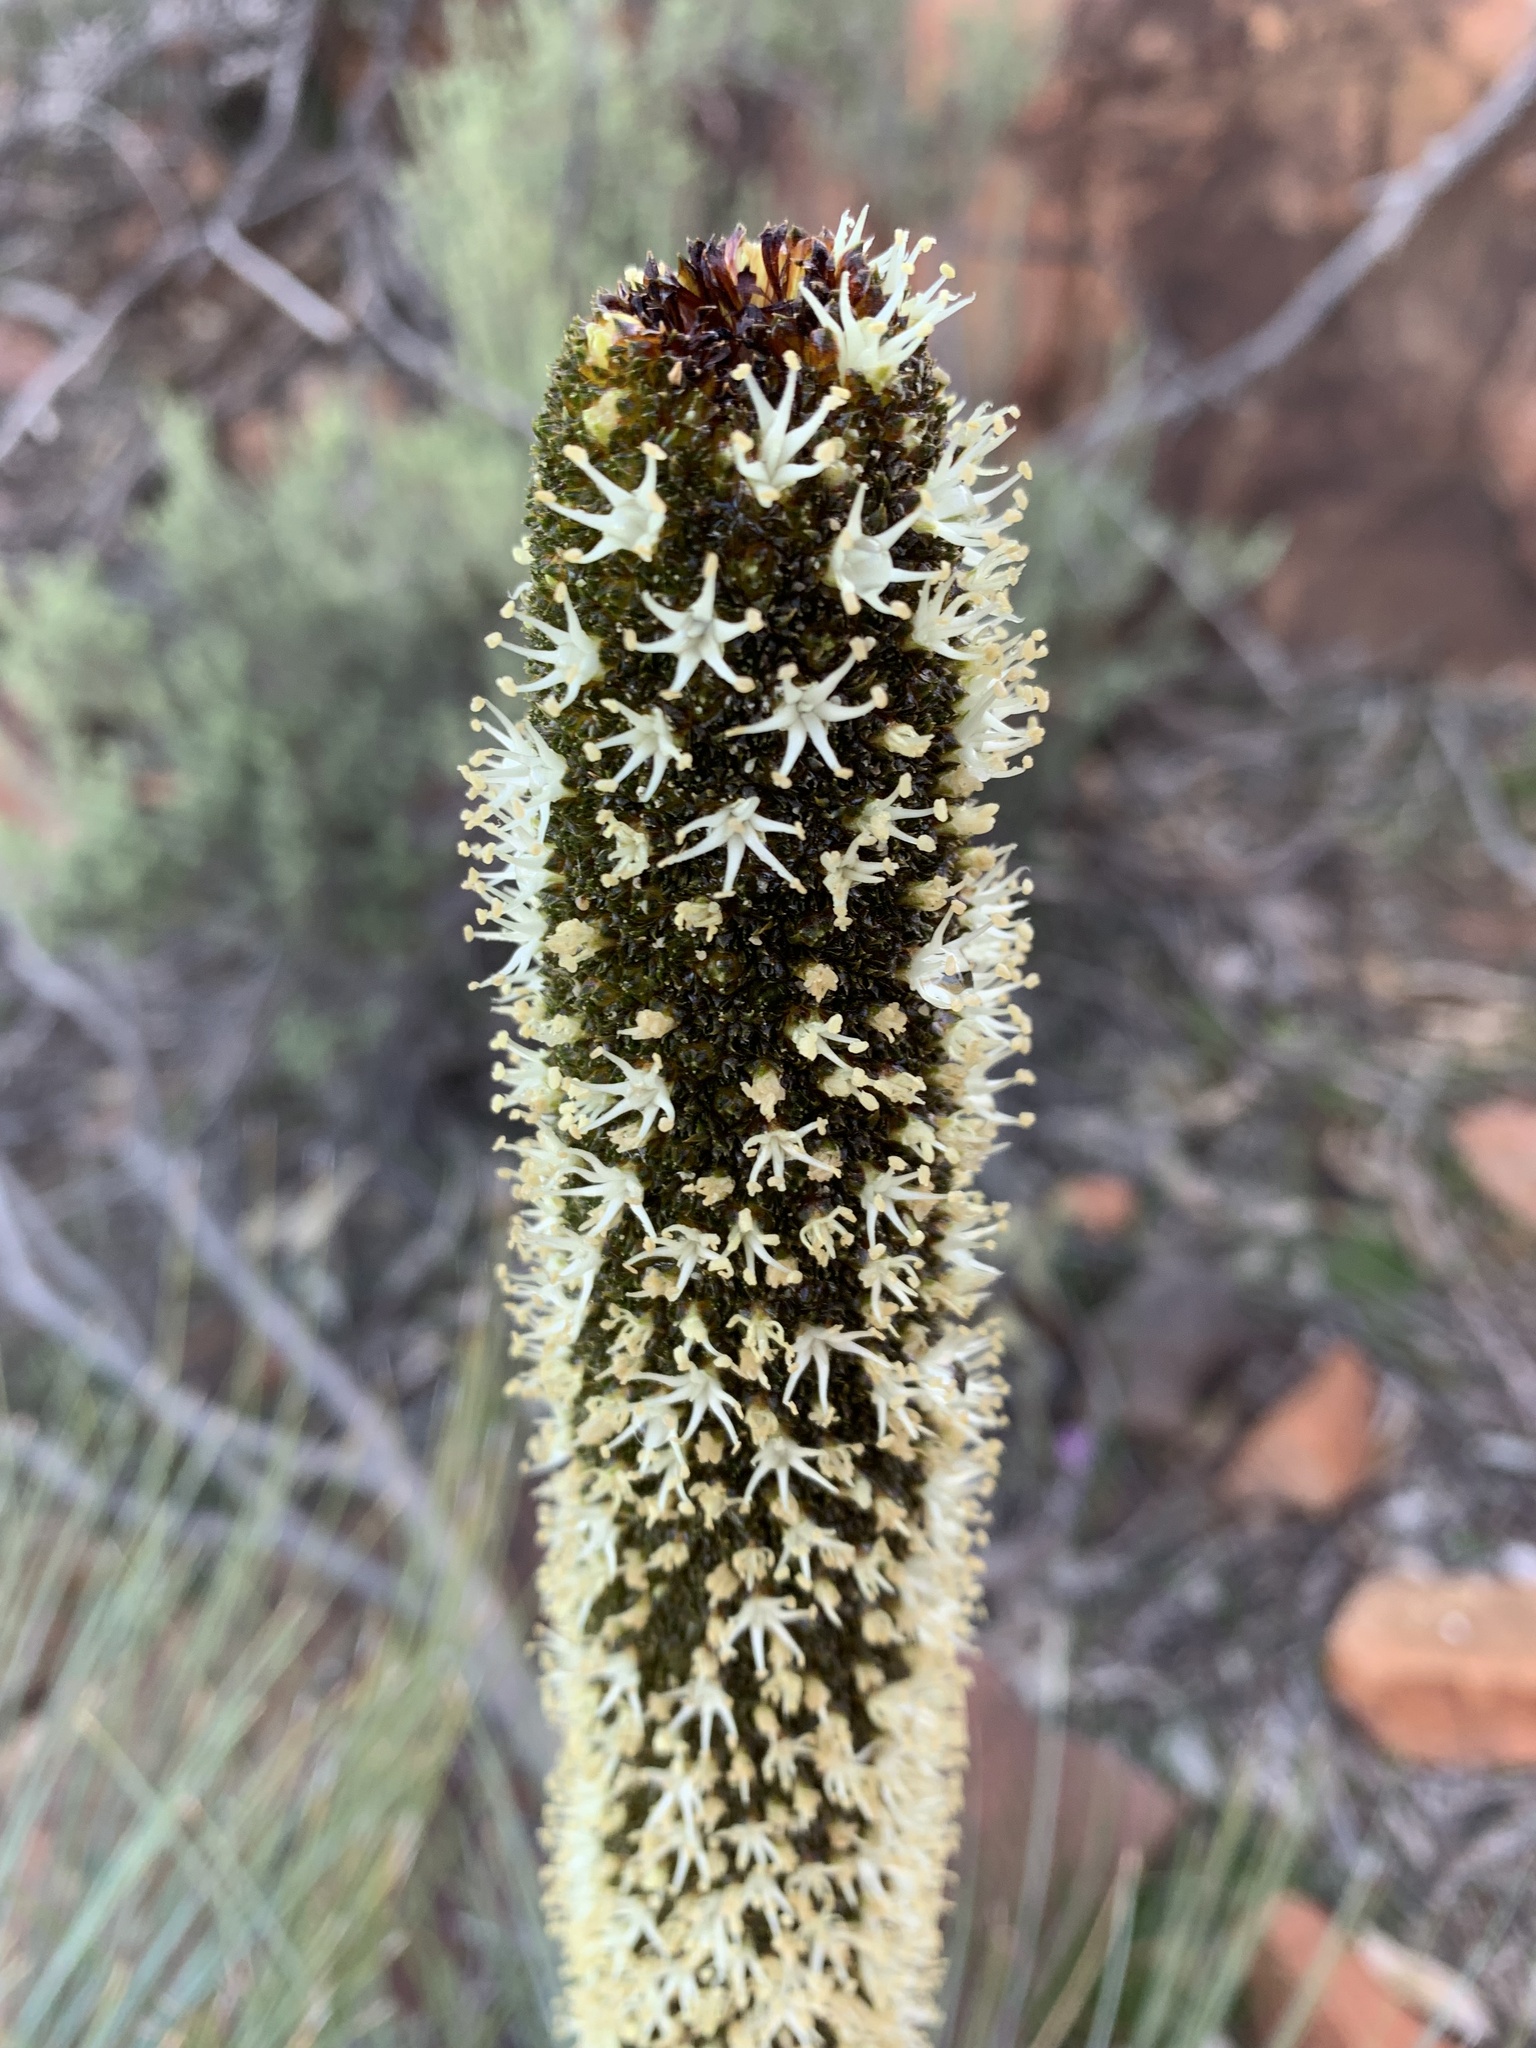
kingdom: Plantae
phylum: Tracheophyta
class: Liliopsida
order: Asparagales
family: Asphodelaceae
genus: Xanthorrhoea
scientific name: Xanthorrhoea quadrangulata
